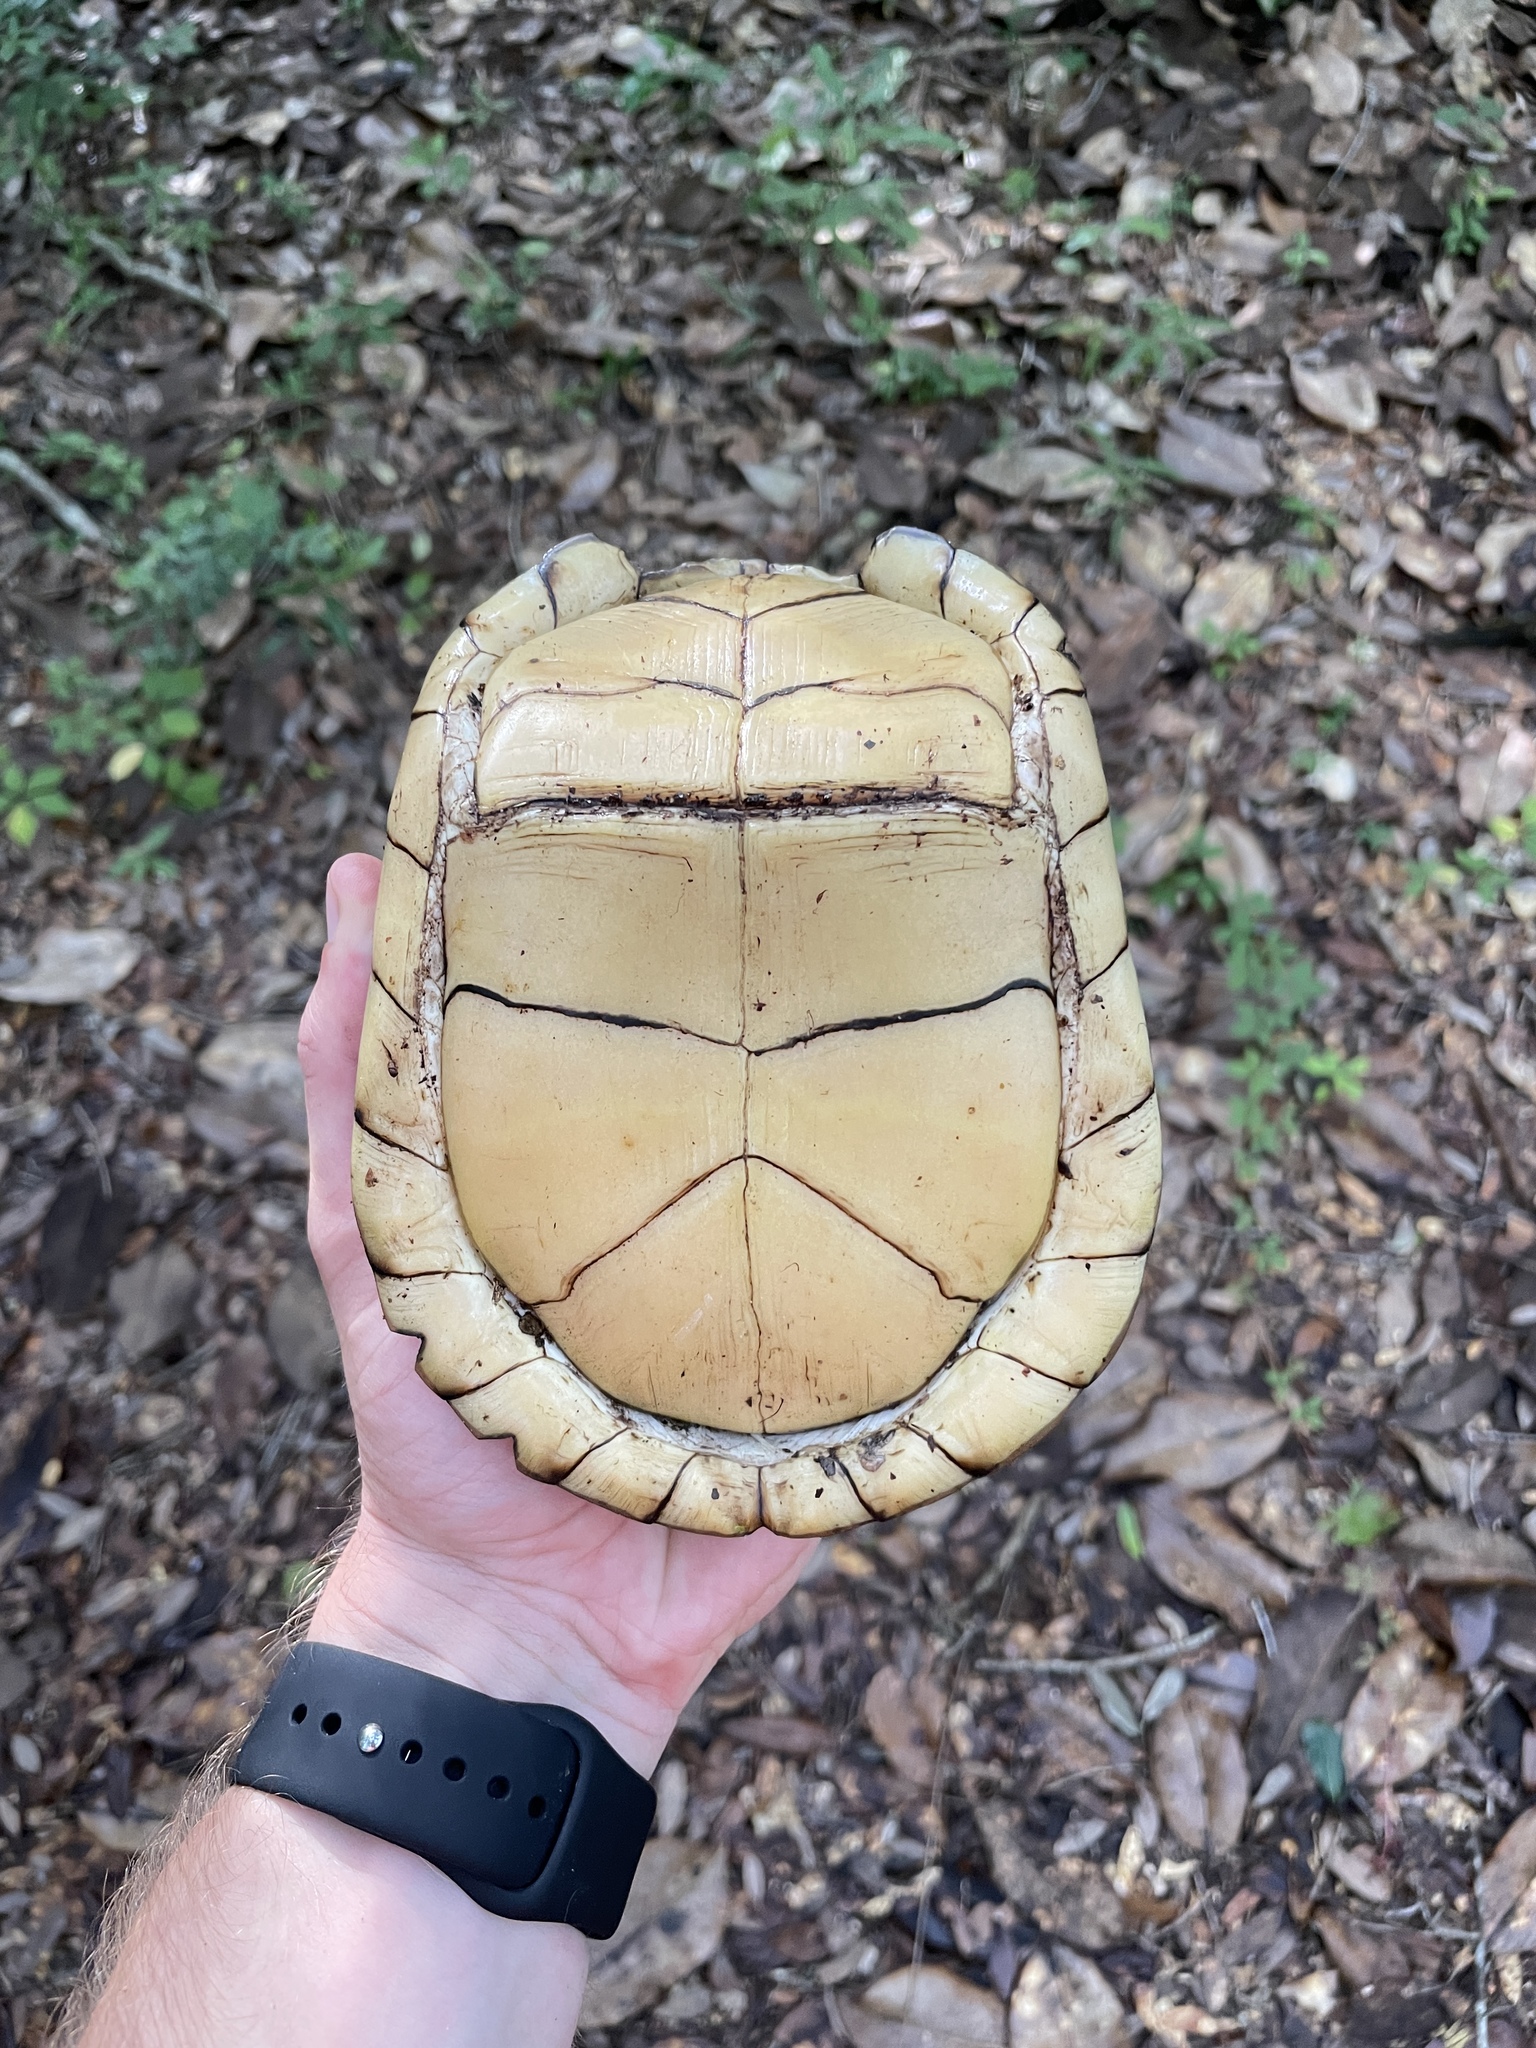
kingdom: Animalia
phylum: Chordata
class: Testudines
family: Emydidae
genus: Terrapene
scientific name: Terrapene carolina
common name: Common box turtle
